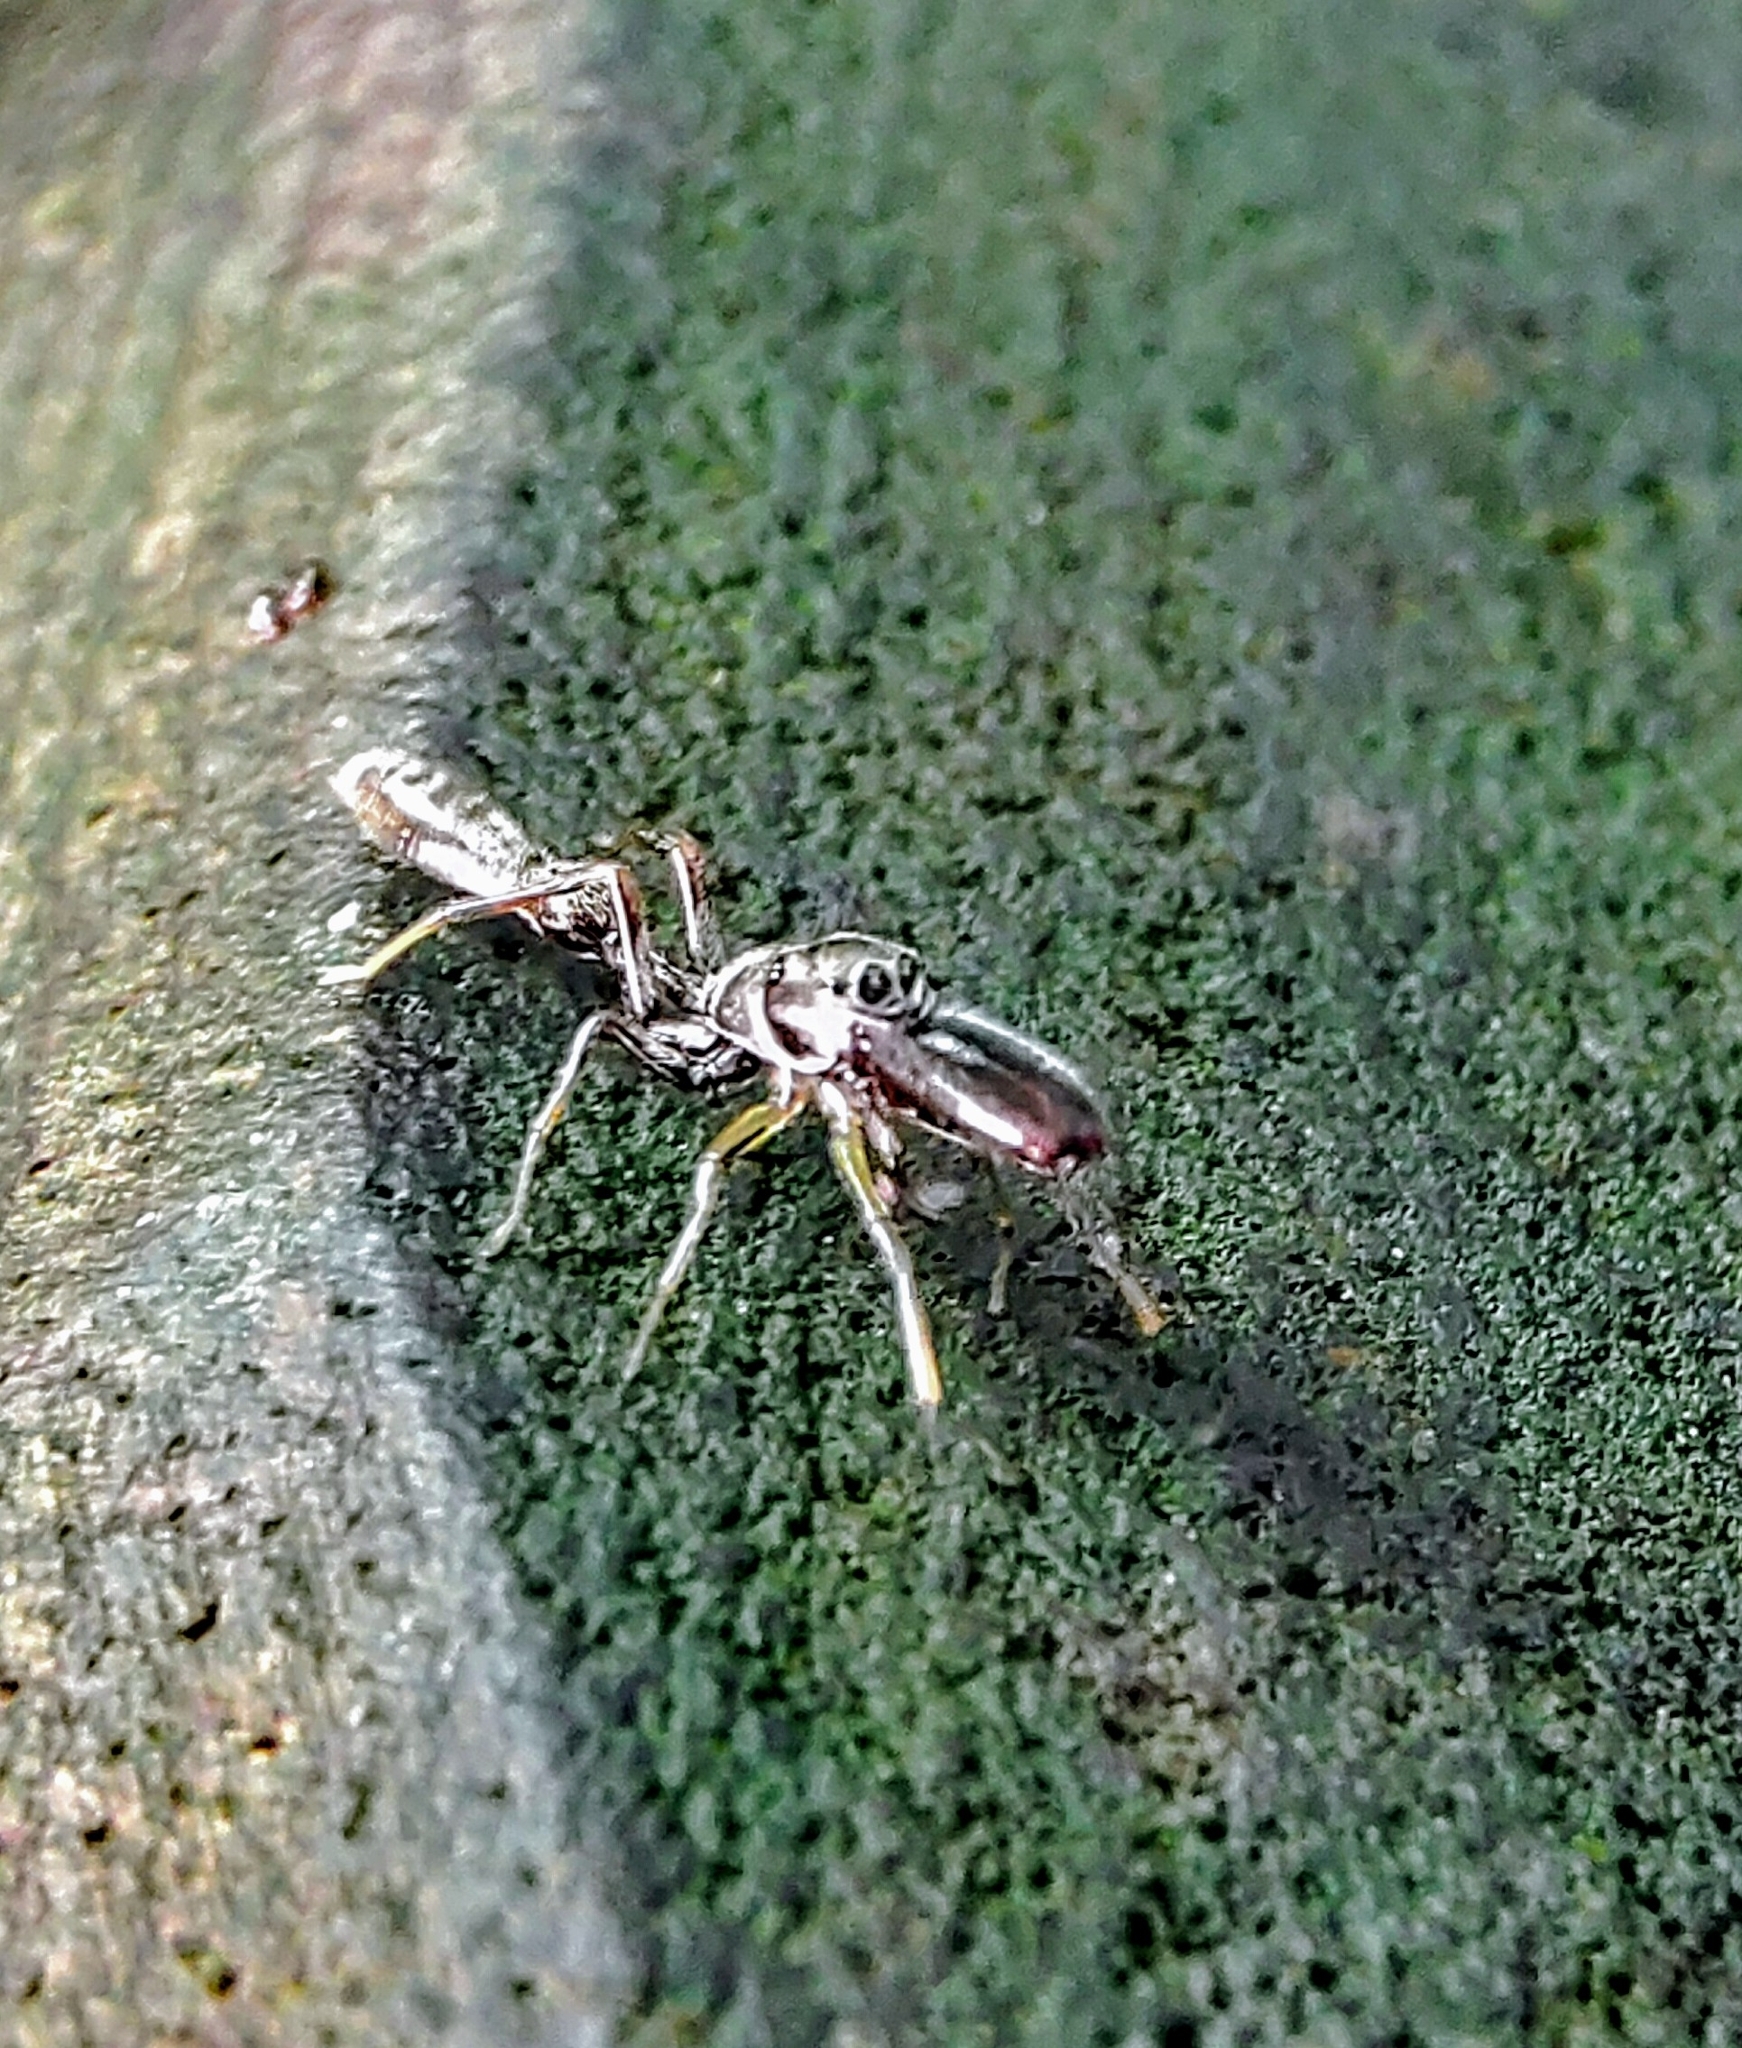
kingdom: Animalia
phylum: Arthropoda
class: Arachnida
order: Araneae
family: Salticidae
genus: Myrmarachne
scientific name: Myrmarachne cornuta
